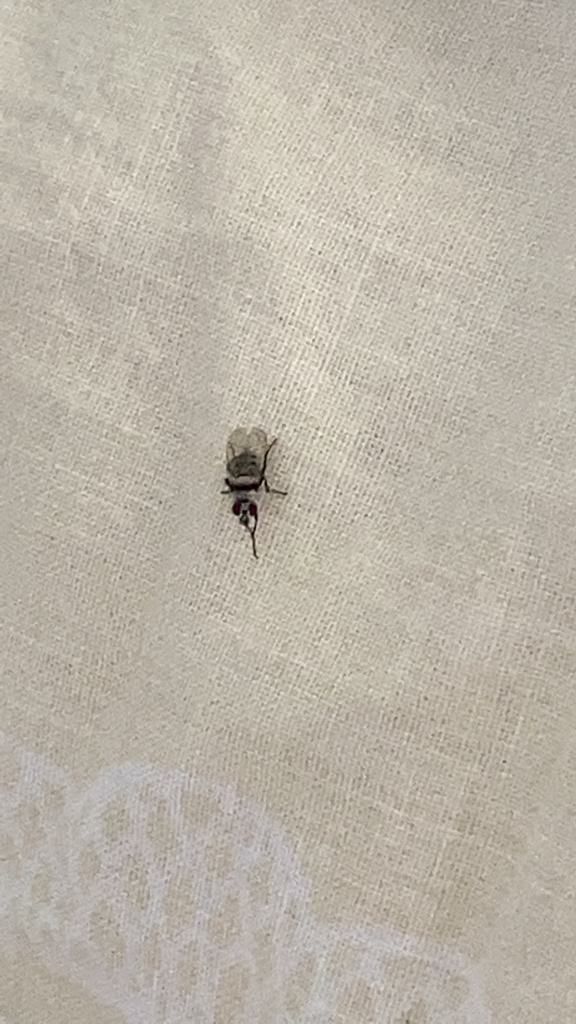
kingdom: Animalia
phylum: Arthropoda
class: Insecta
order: Diptera
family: Anthomyiidae
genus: Anthomyia
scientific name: Anthomyia illocata
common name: Fly
